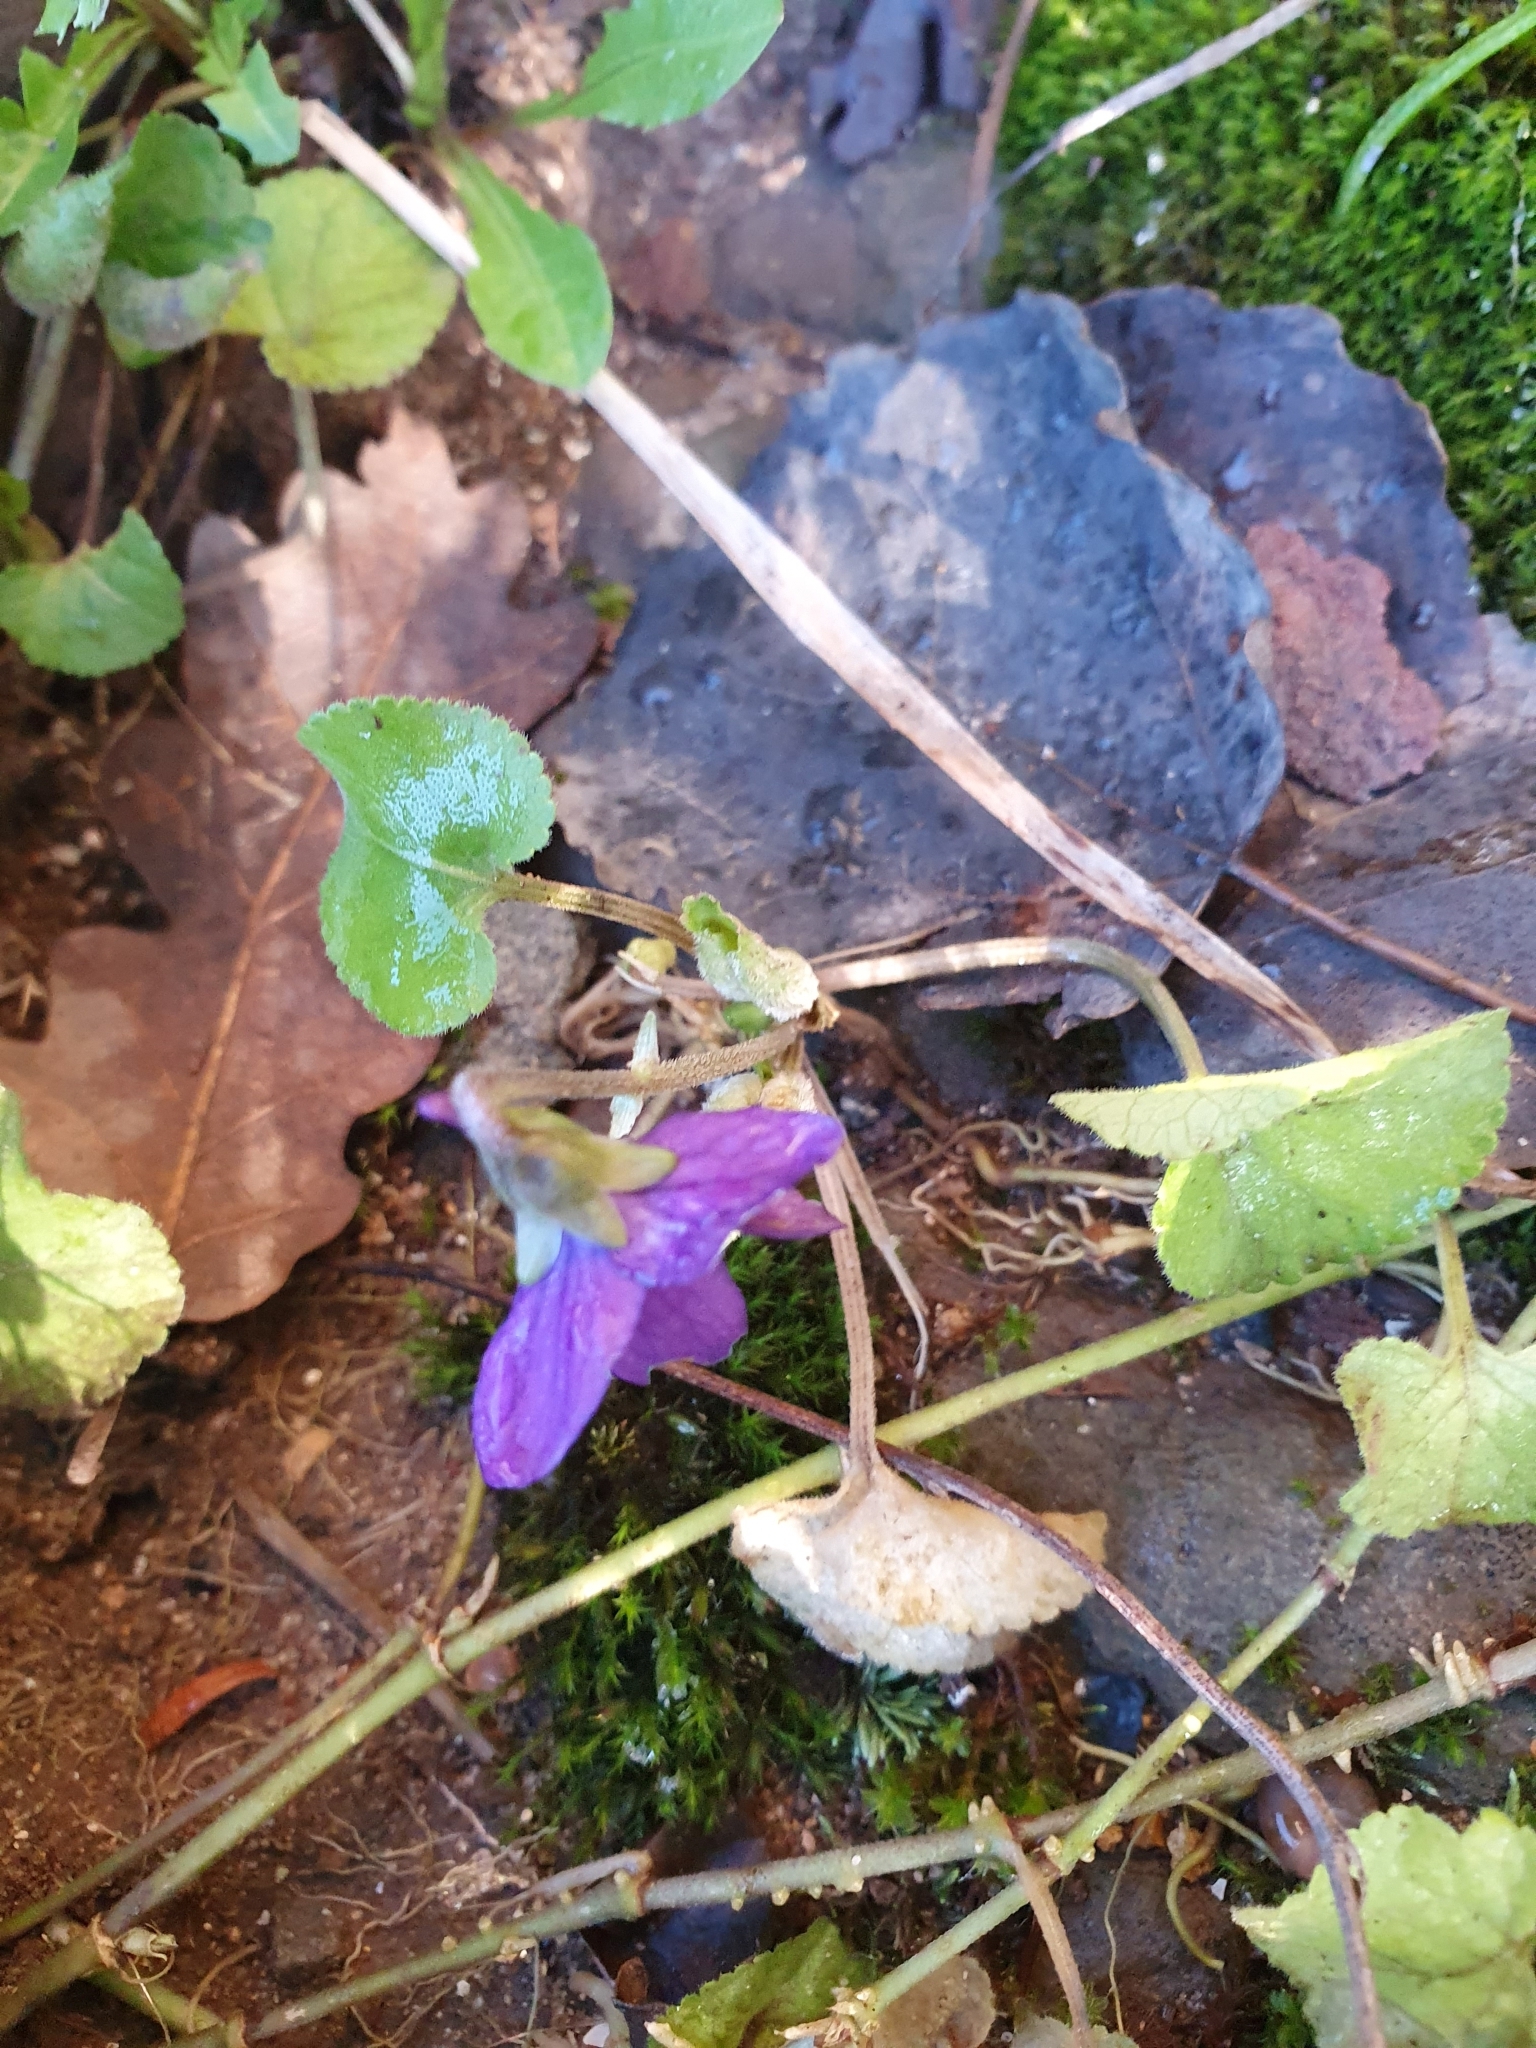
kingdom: Plantae
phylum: Tracheophyta
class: Magnoliopsida
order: Malpighiales
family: Violaceae
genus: Viola
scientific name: Viola odorata
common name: Sweet violet
